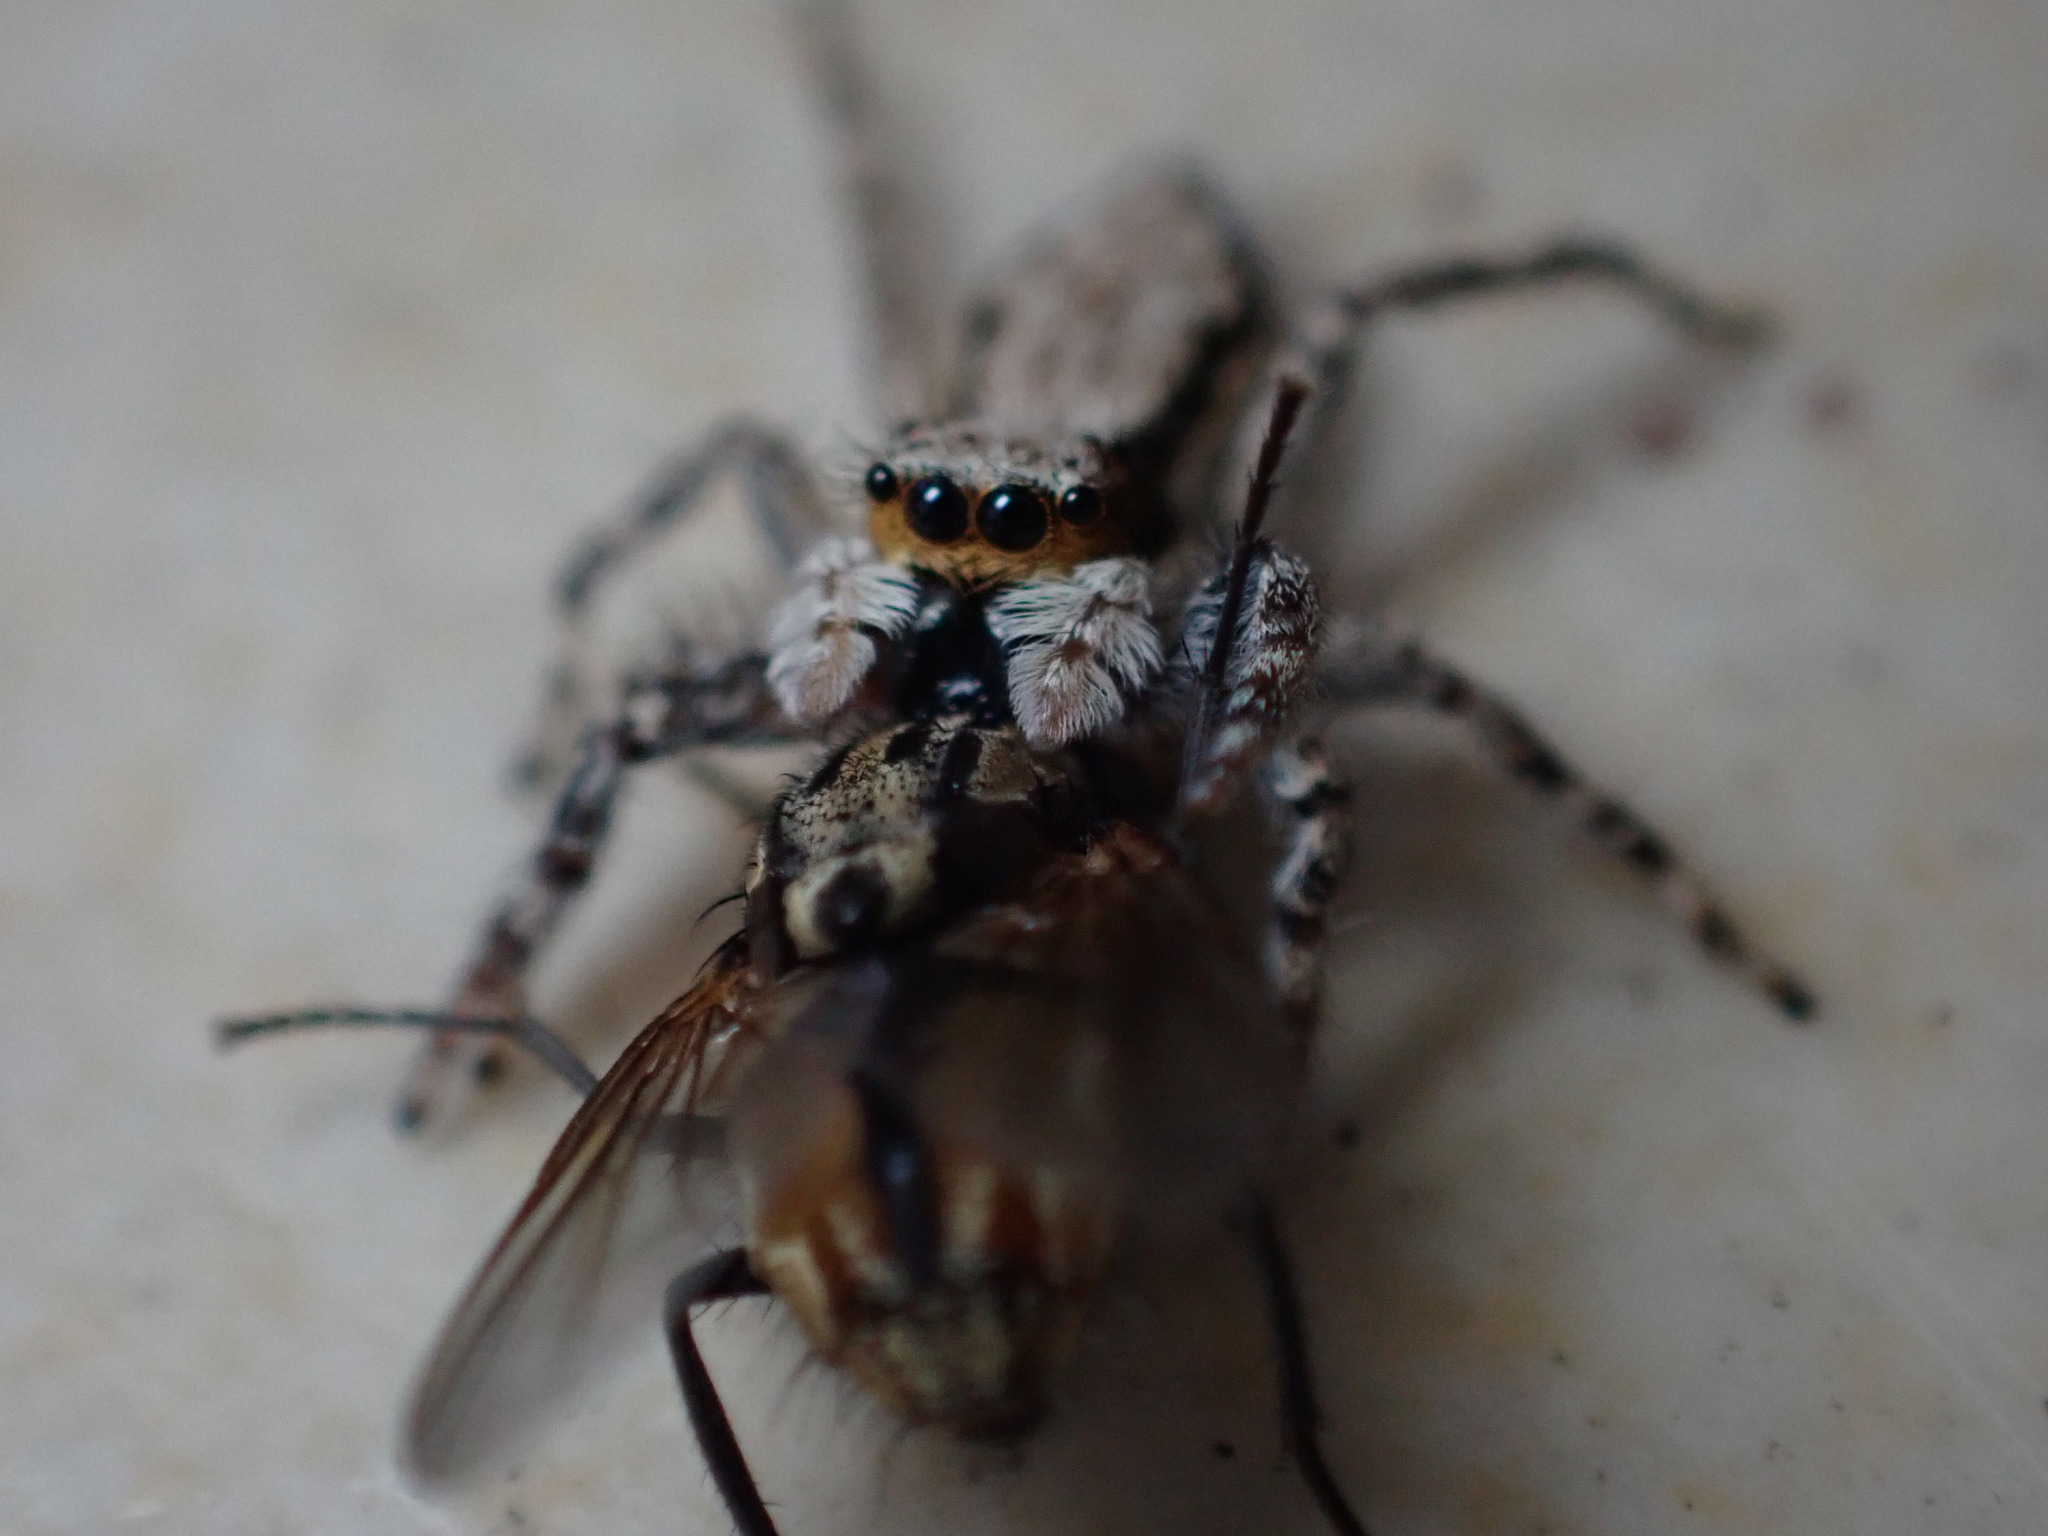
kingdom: Animalia
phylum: Arthropoda
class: Arachnida
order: Araneae
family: Salticidae
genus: Menemerus
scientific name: Menemerus bivittatus
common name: Gray wall jumper
